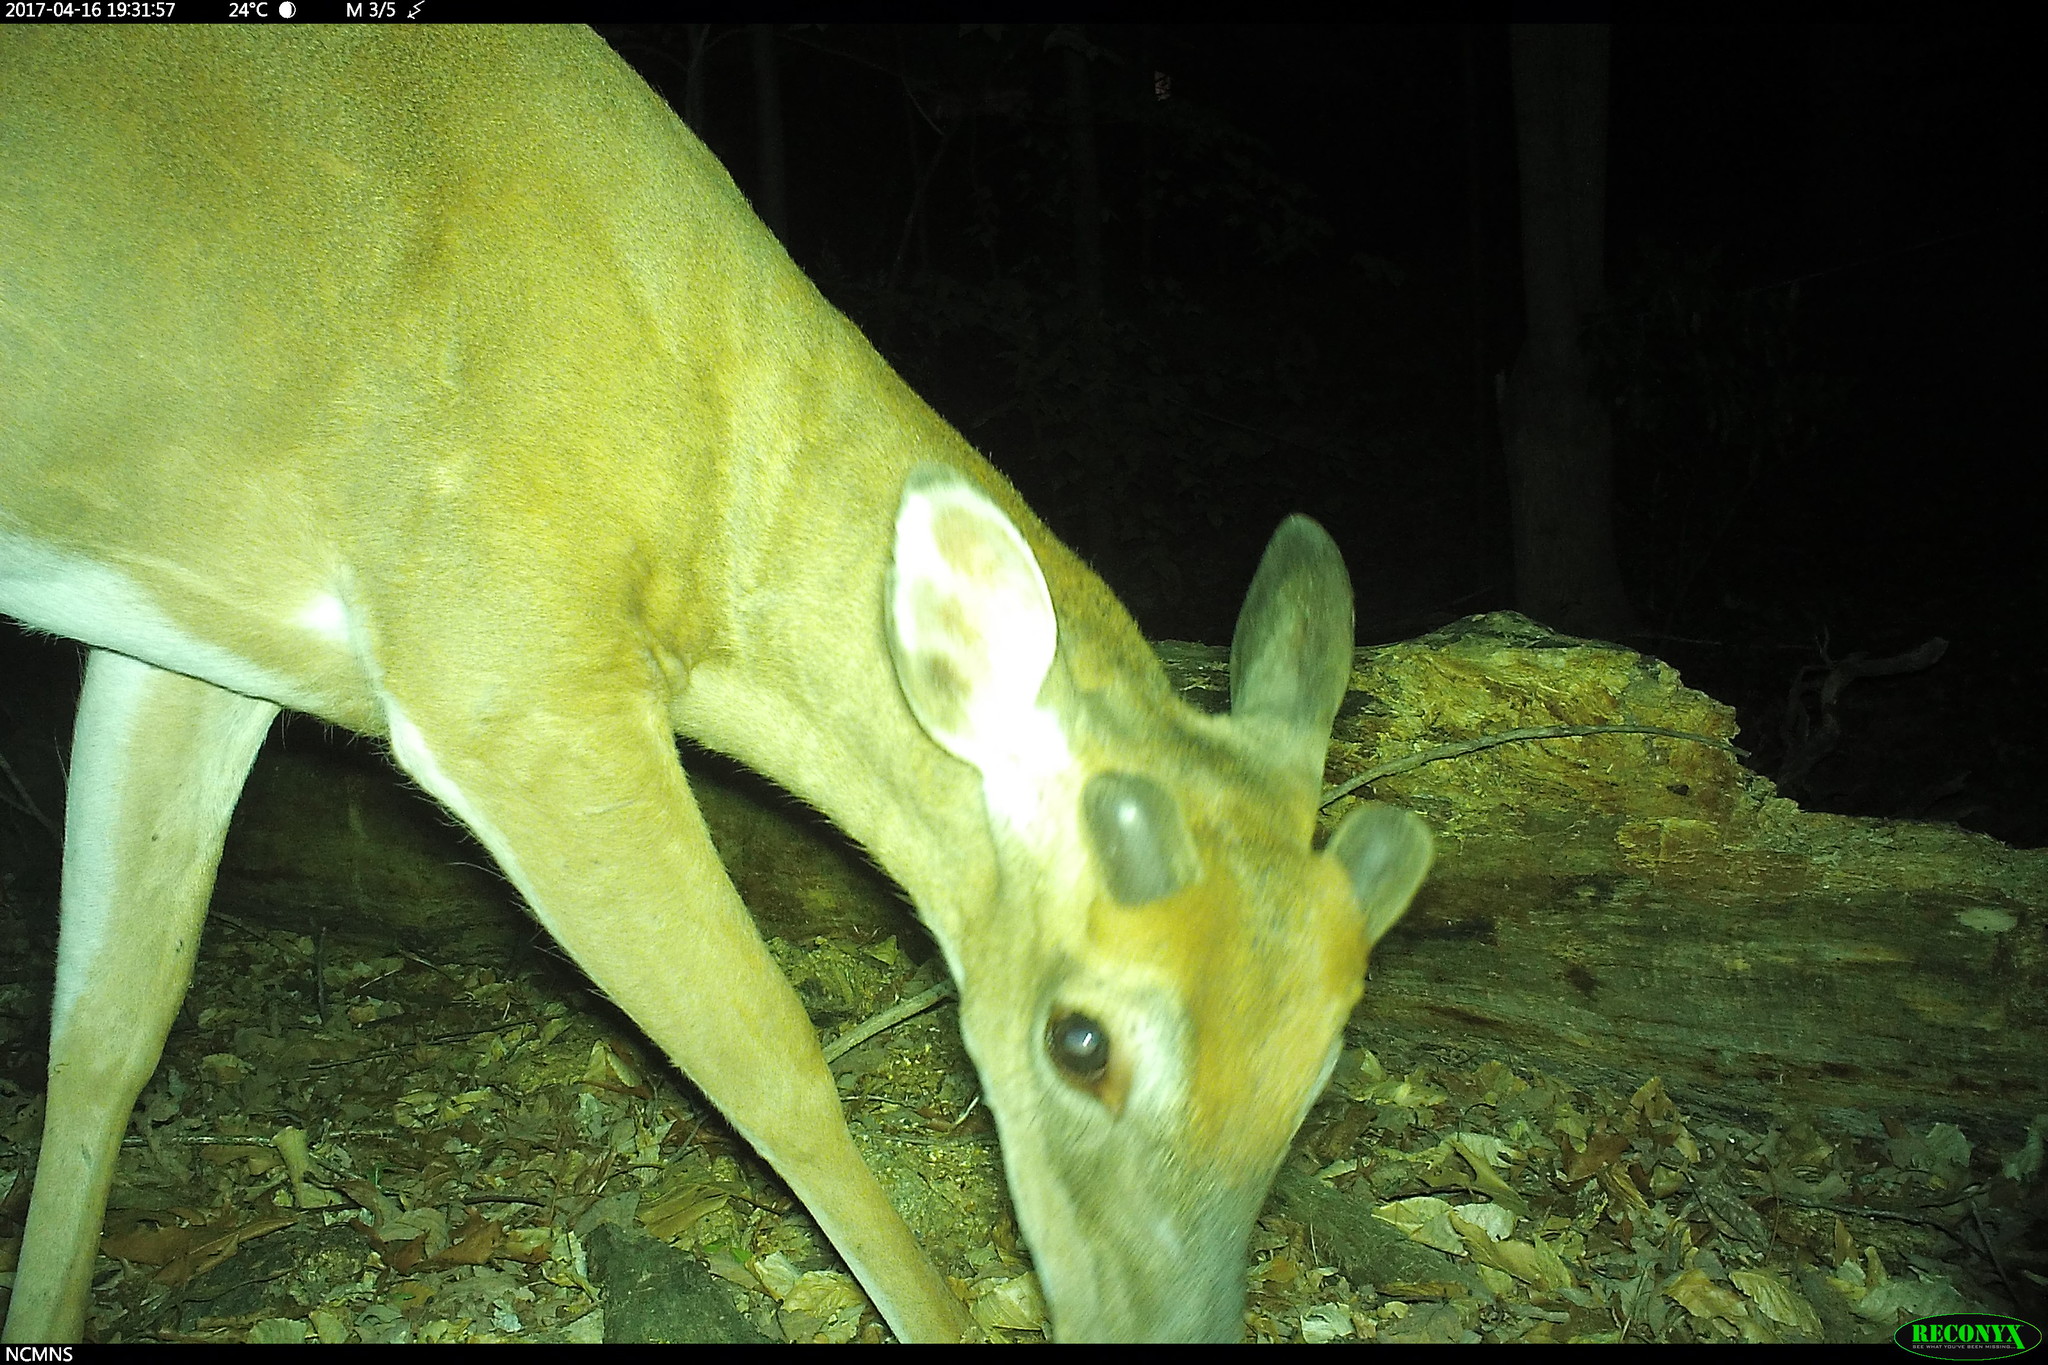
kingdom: Animalia
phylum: Chordata
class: Mammalia
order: Artiodactyla
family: Cervidae
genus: Odocoileus
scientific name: Odocoileus virginianus
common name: White-tailed deer
